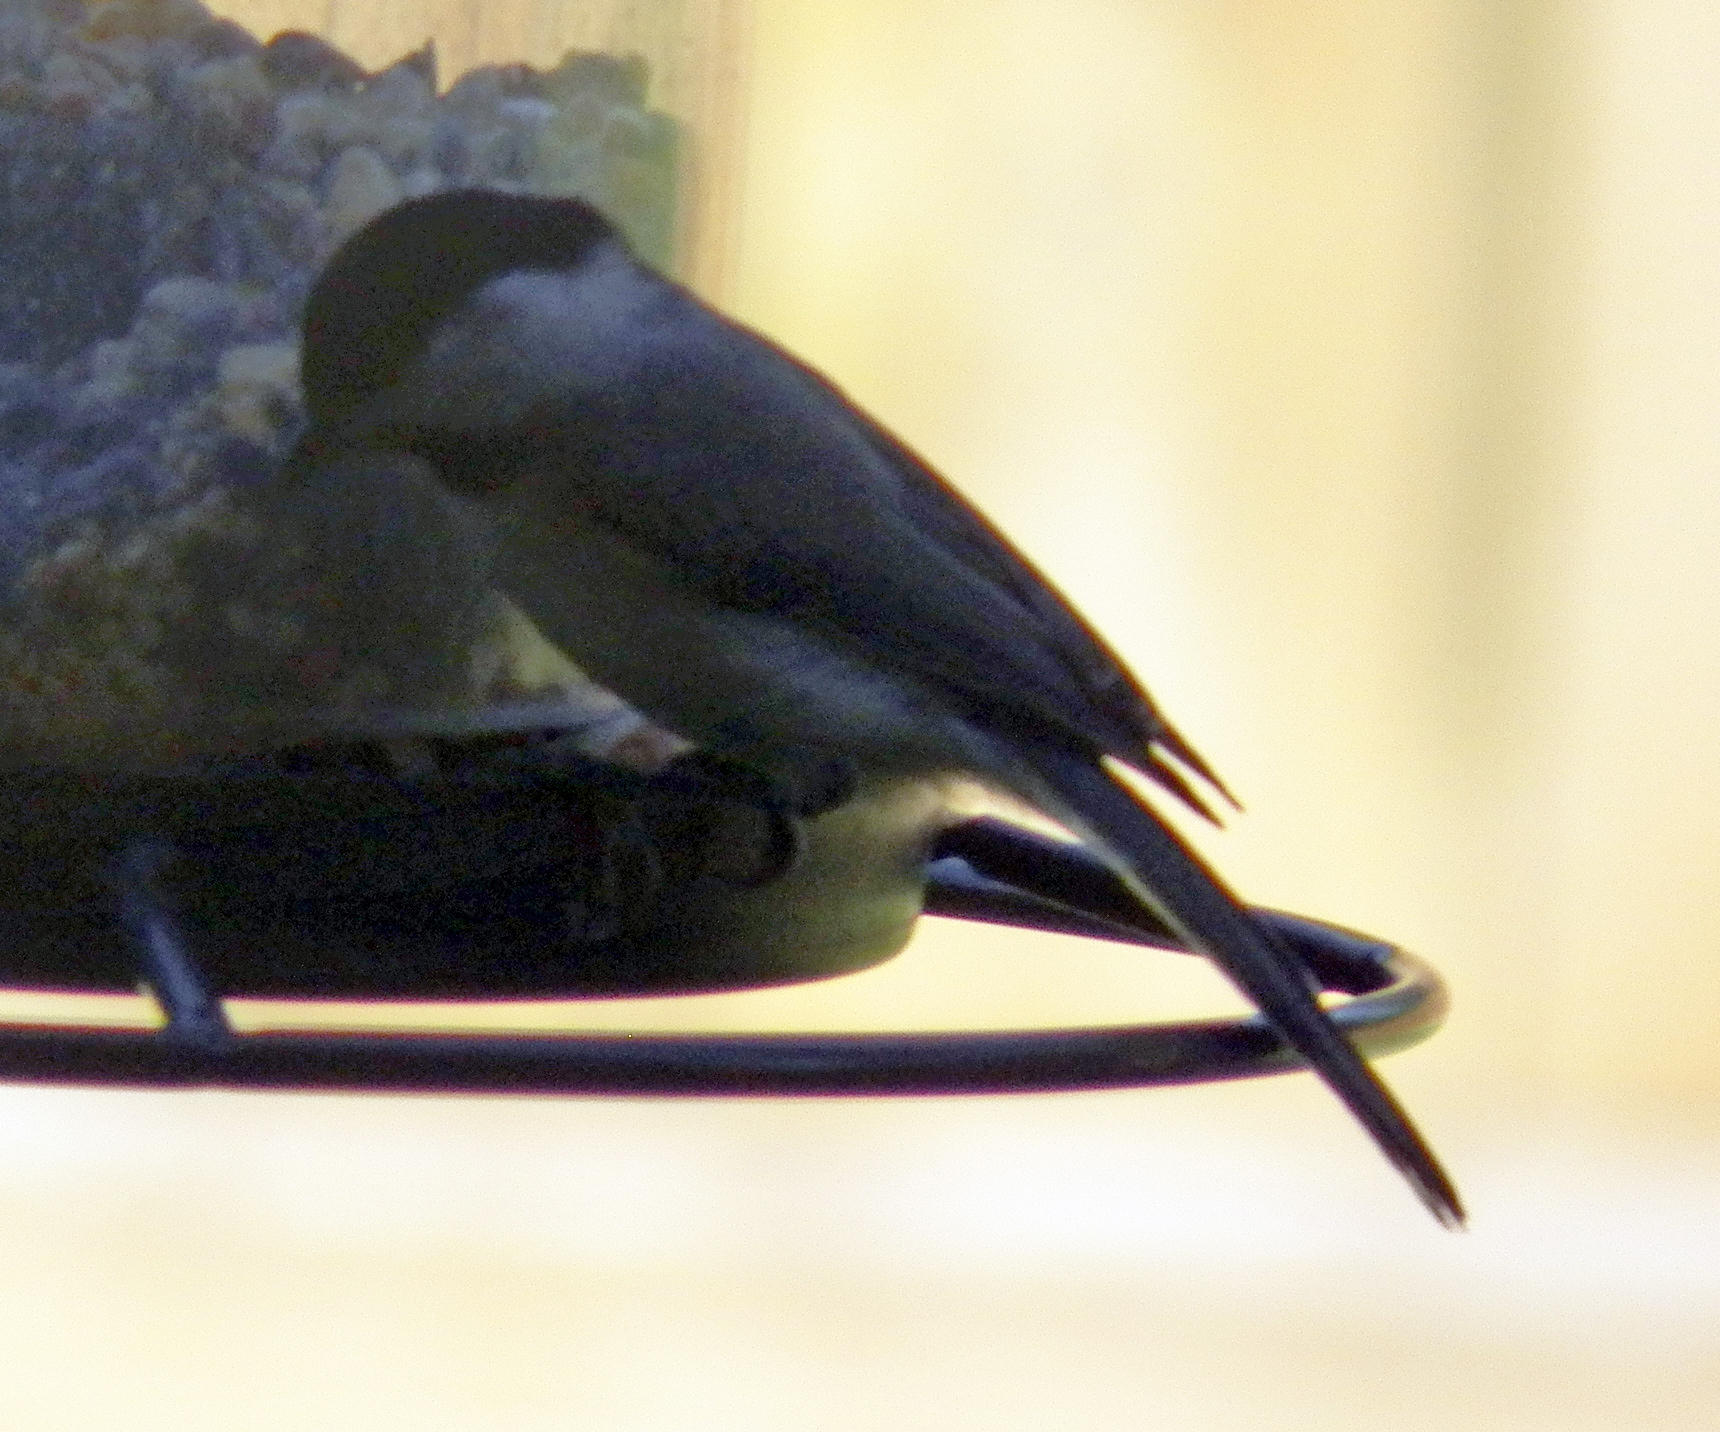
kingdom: Animalia
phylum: Chordata
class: Aves
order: Passeriformes
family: Paridae
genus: Poecile
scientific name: Poecile carolinensis
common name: Carolina chickadee
